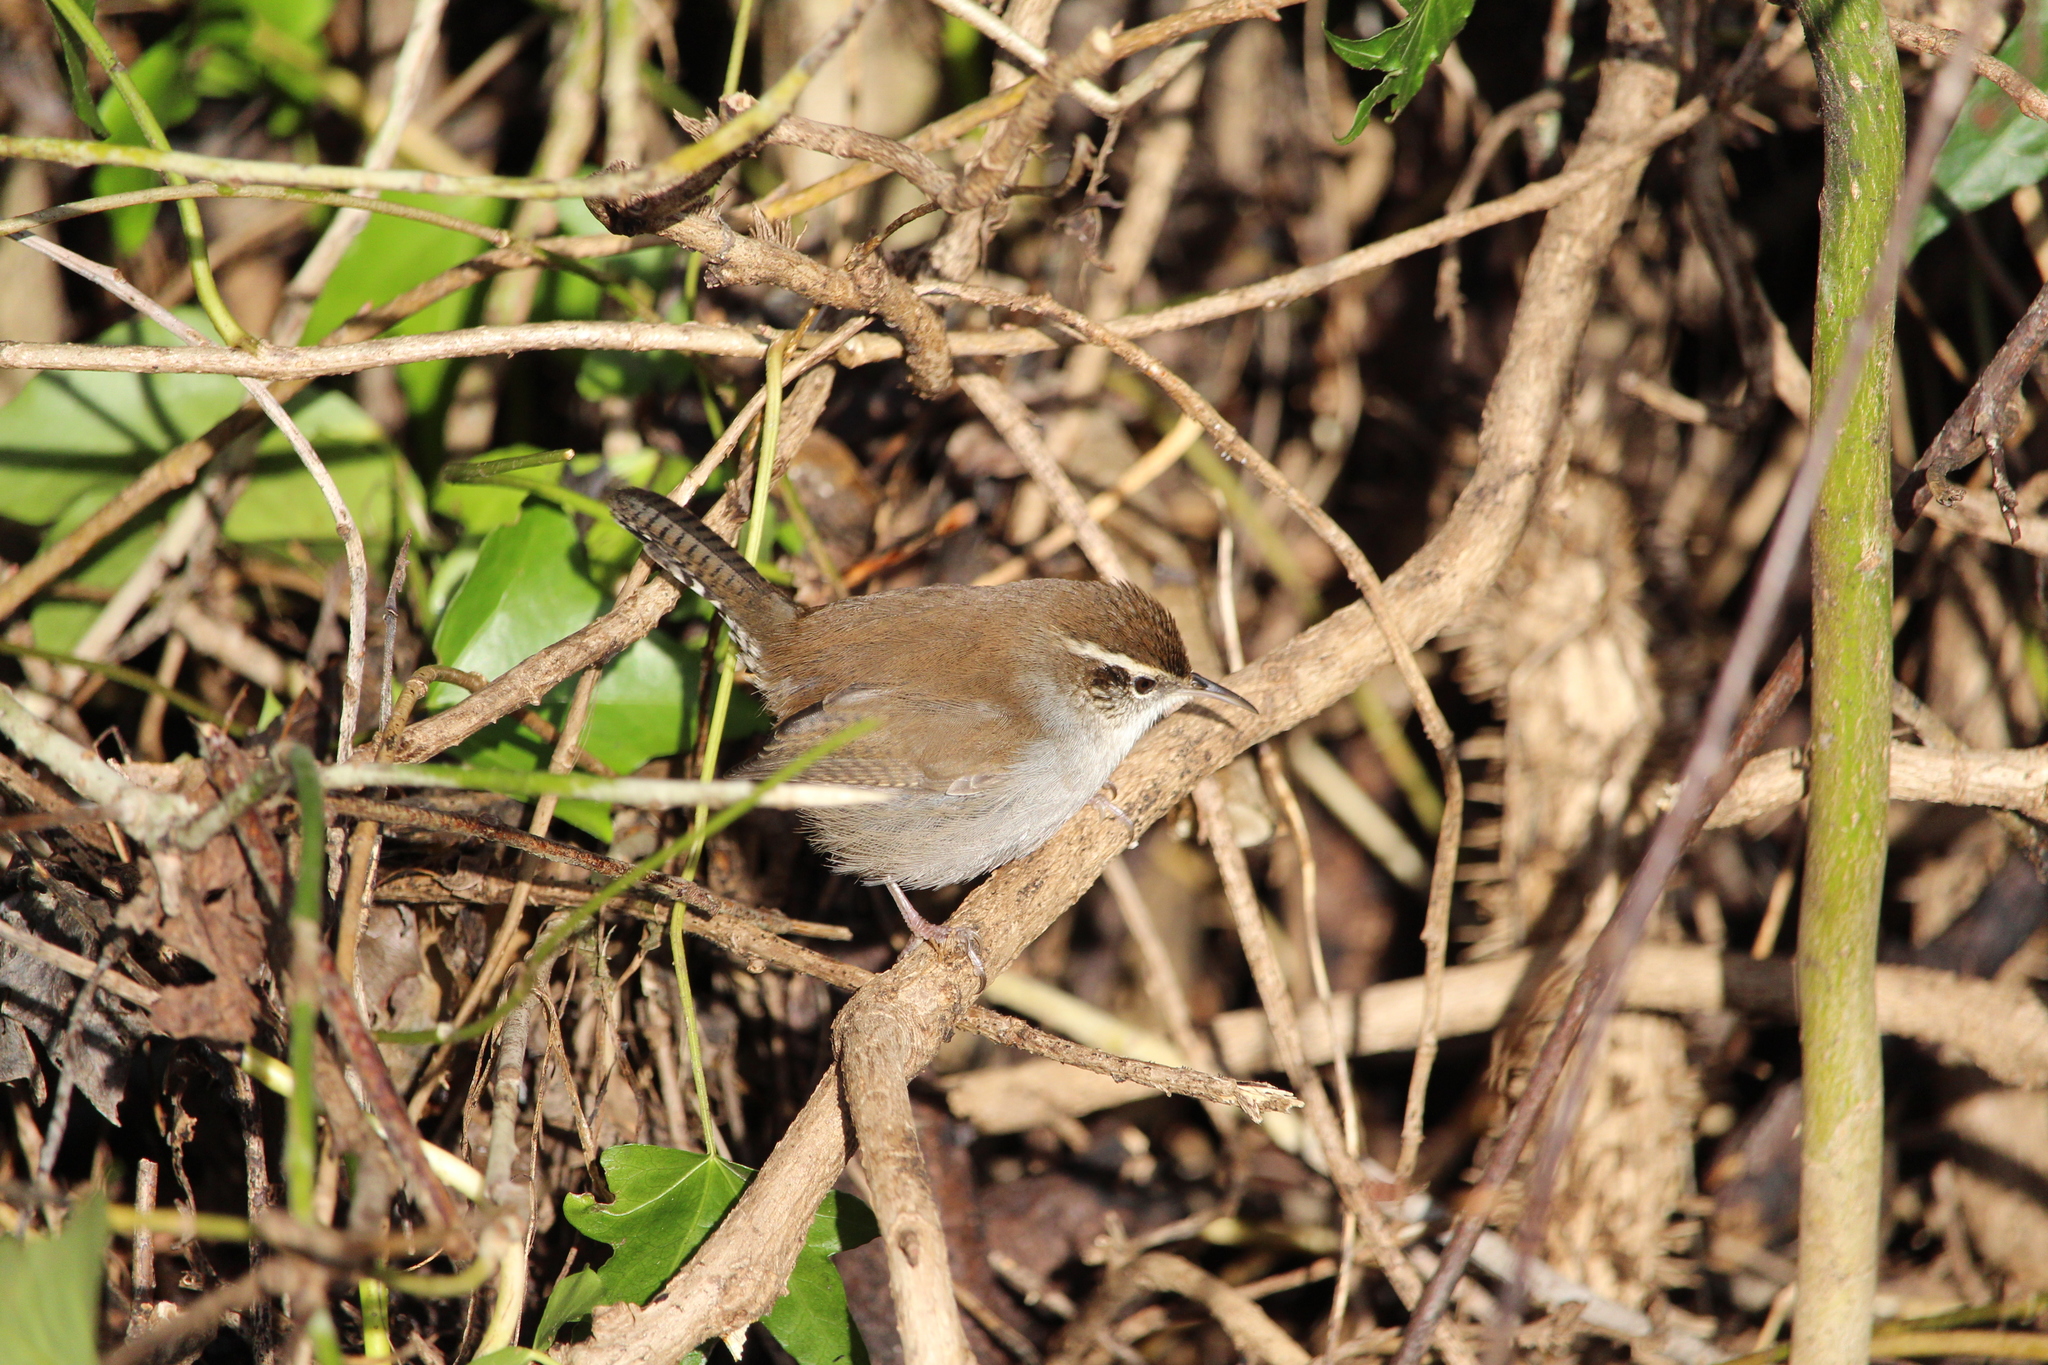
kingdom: Animalia
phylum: Chordata
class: Aves
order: Passeriformes
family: Troglodytidae
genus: Thryomanes
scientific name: Thryomanes bewickii
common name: Bewick's wren
